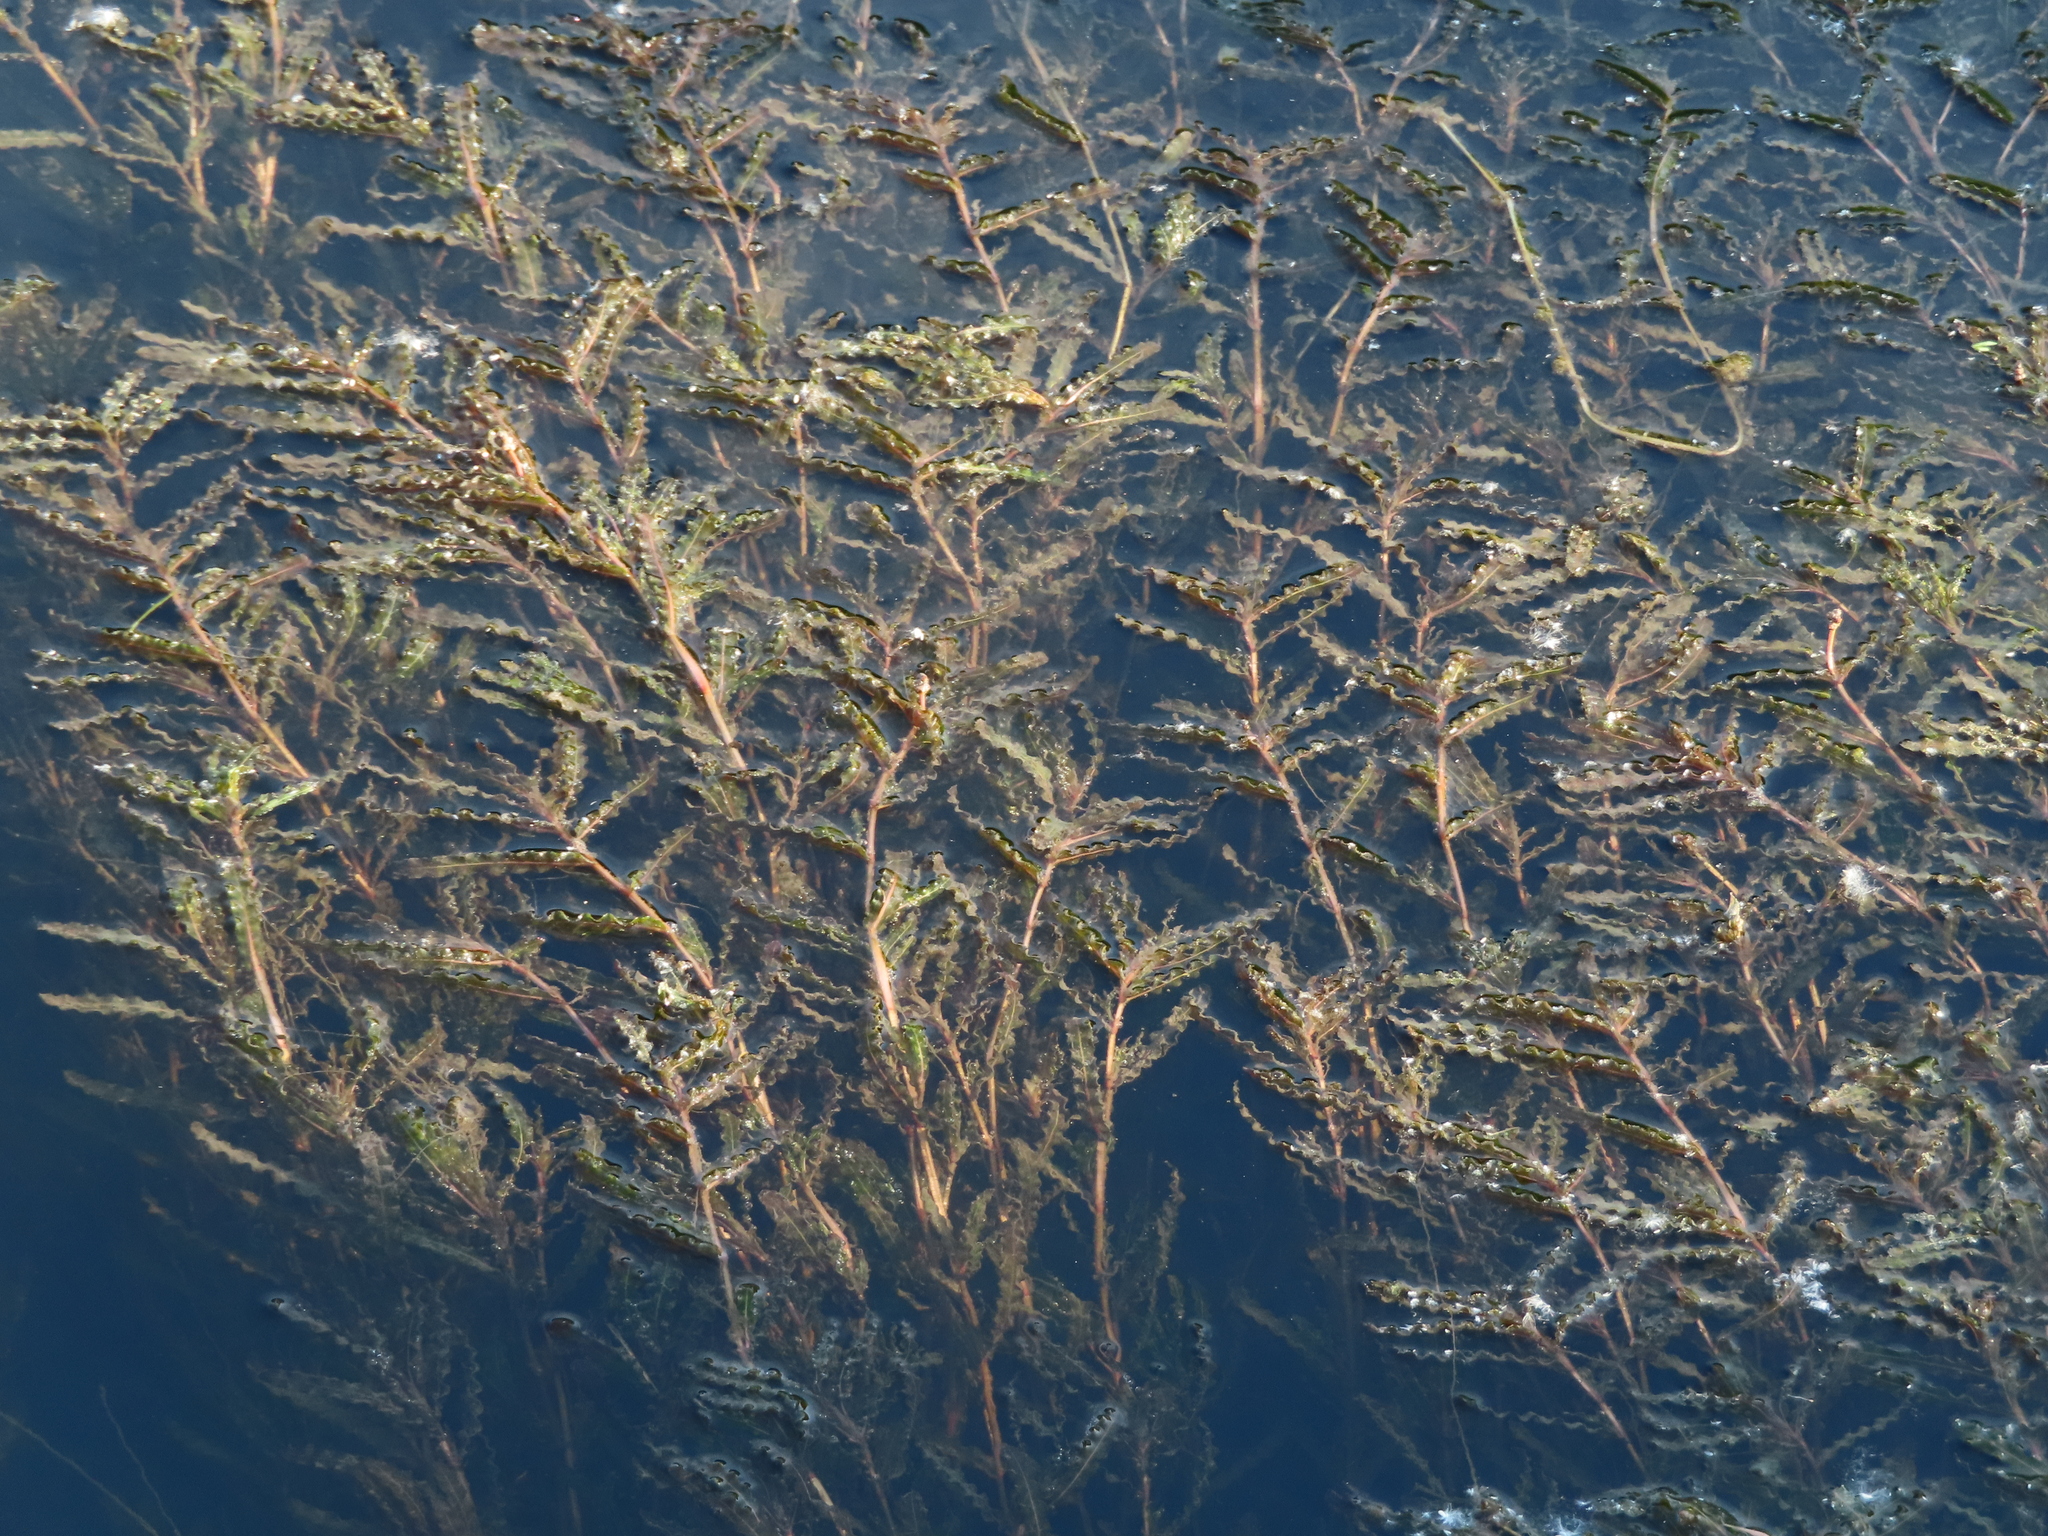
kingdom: Plantae
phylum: Tracheophyta
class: Liliopsida
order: Alismatales
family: Potamogetonaceae
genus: Potamogeton
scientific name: Potamogeton crispus
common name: Curled pondweed
